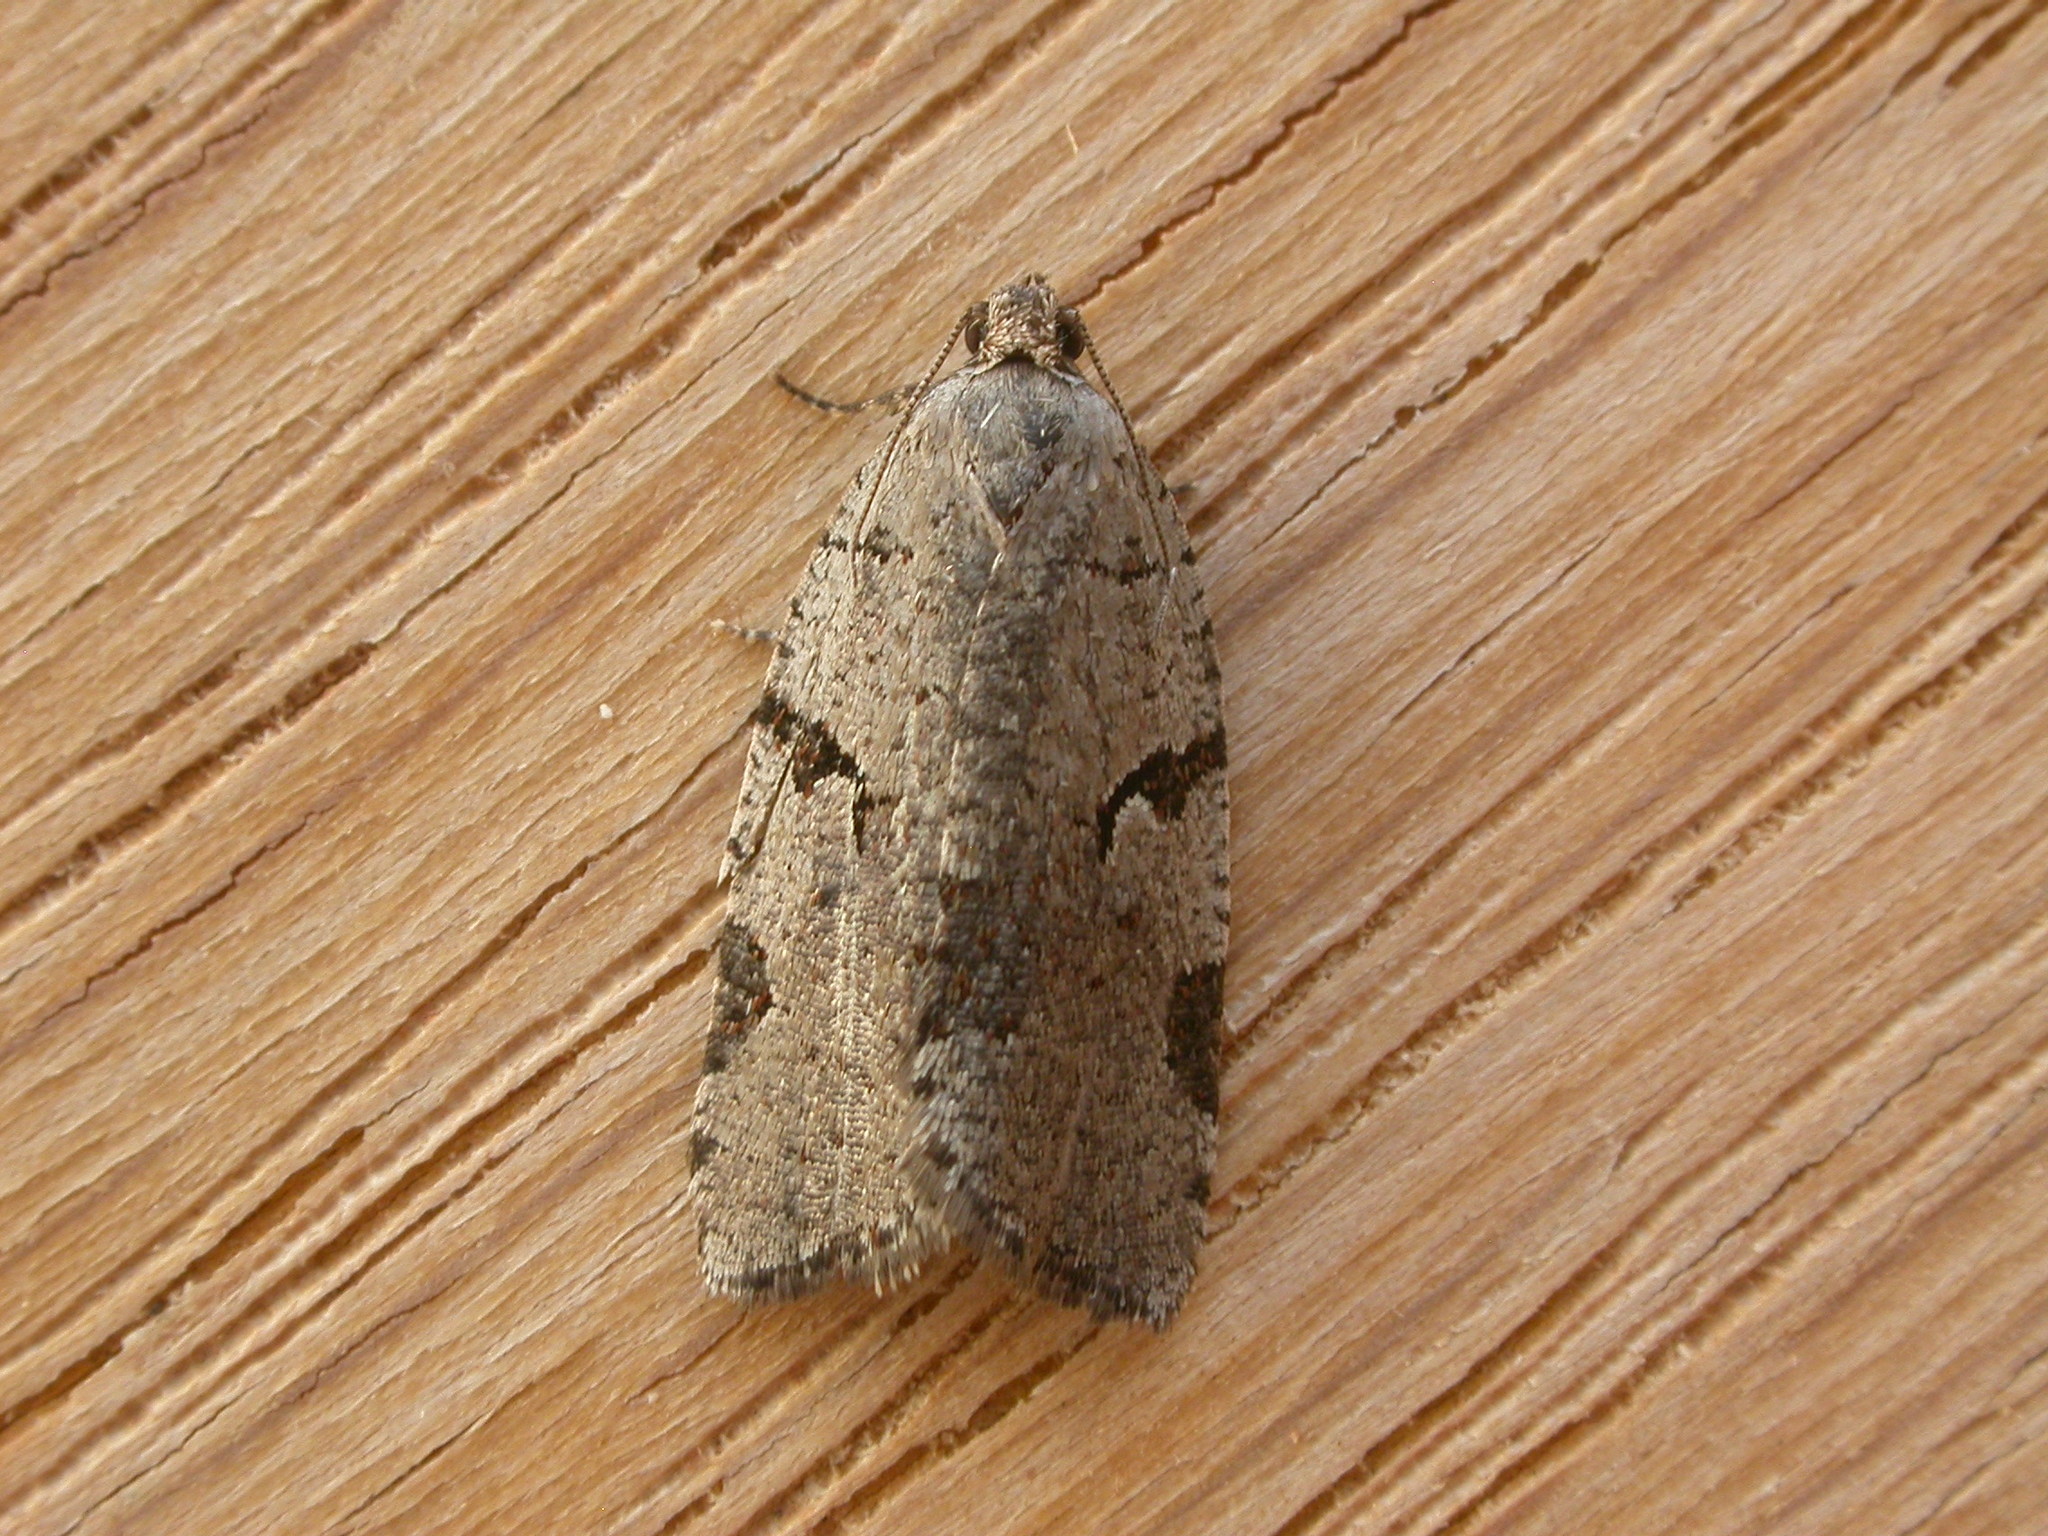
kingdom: Animalia
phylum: Arthropoda
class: Insecta
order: Lepidoptera
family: Tortricidae
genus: Meritastis
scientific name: Meritastis pyrosemana
